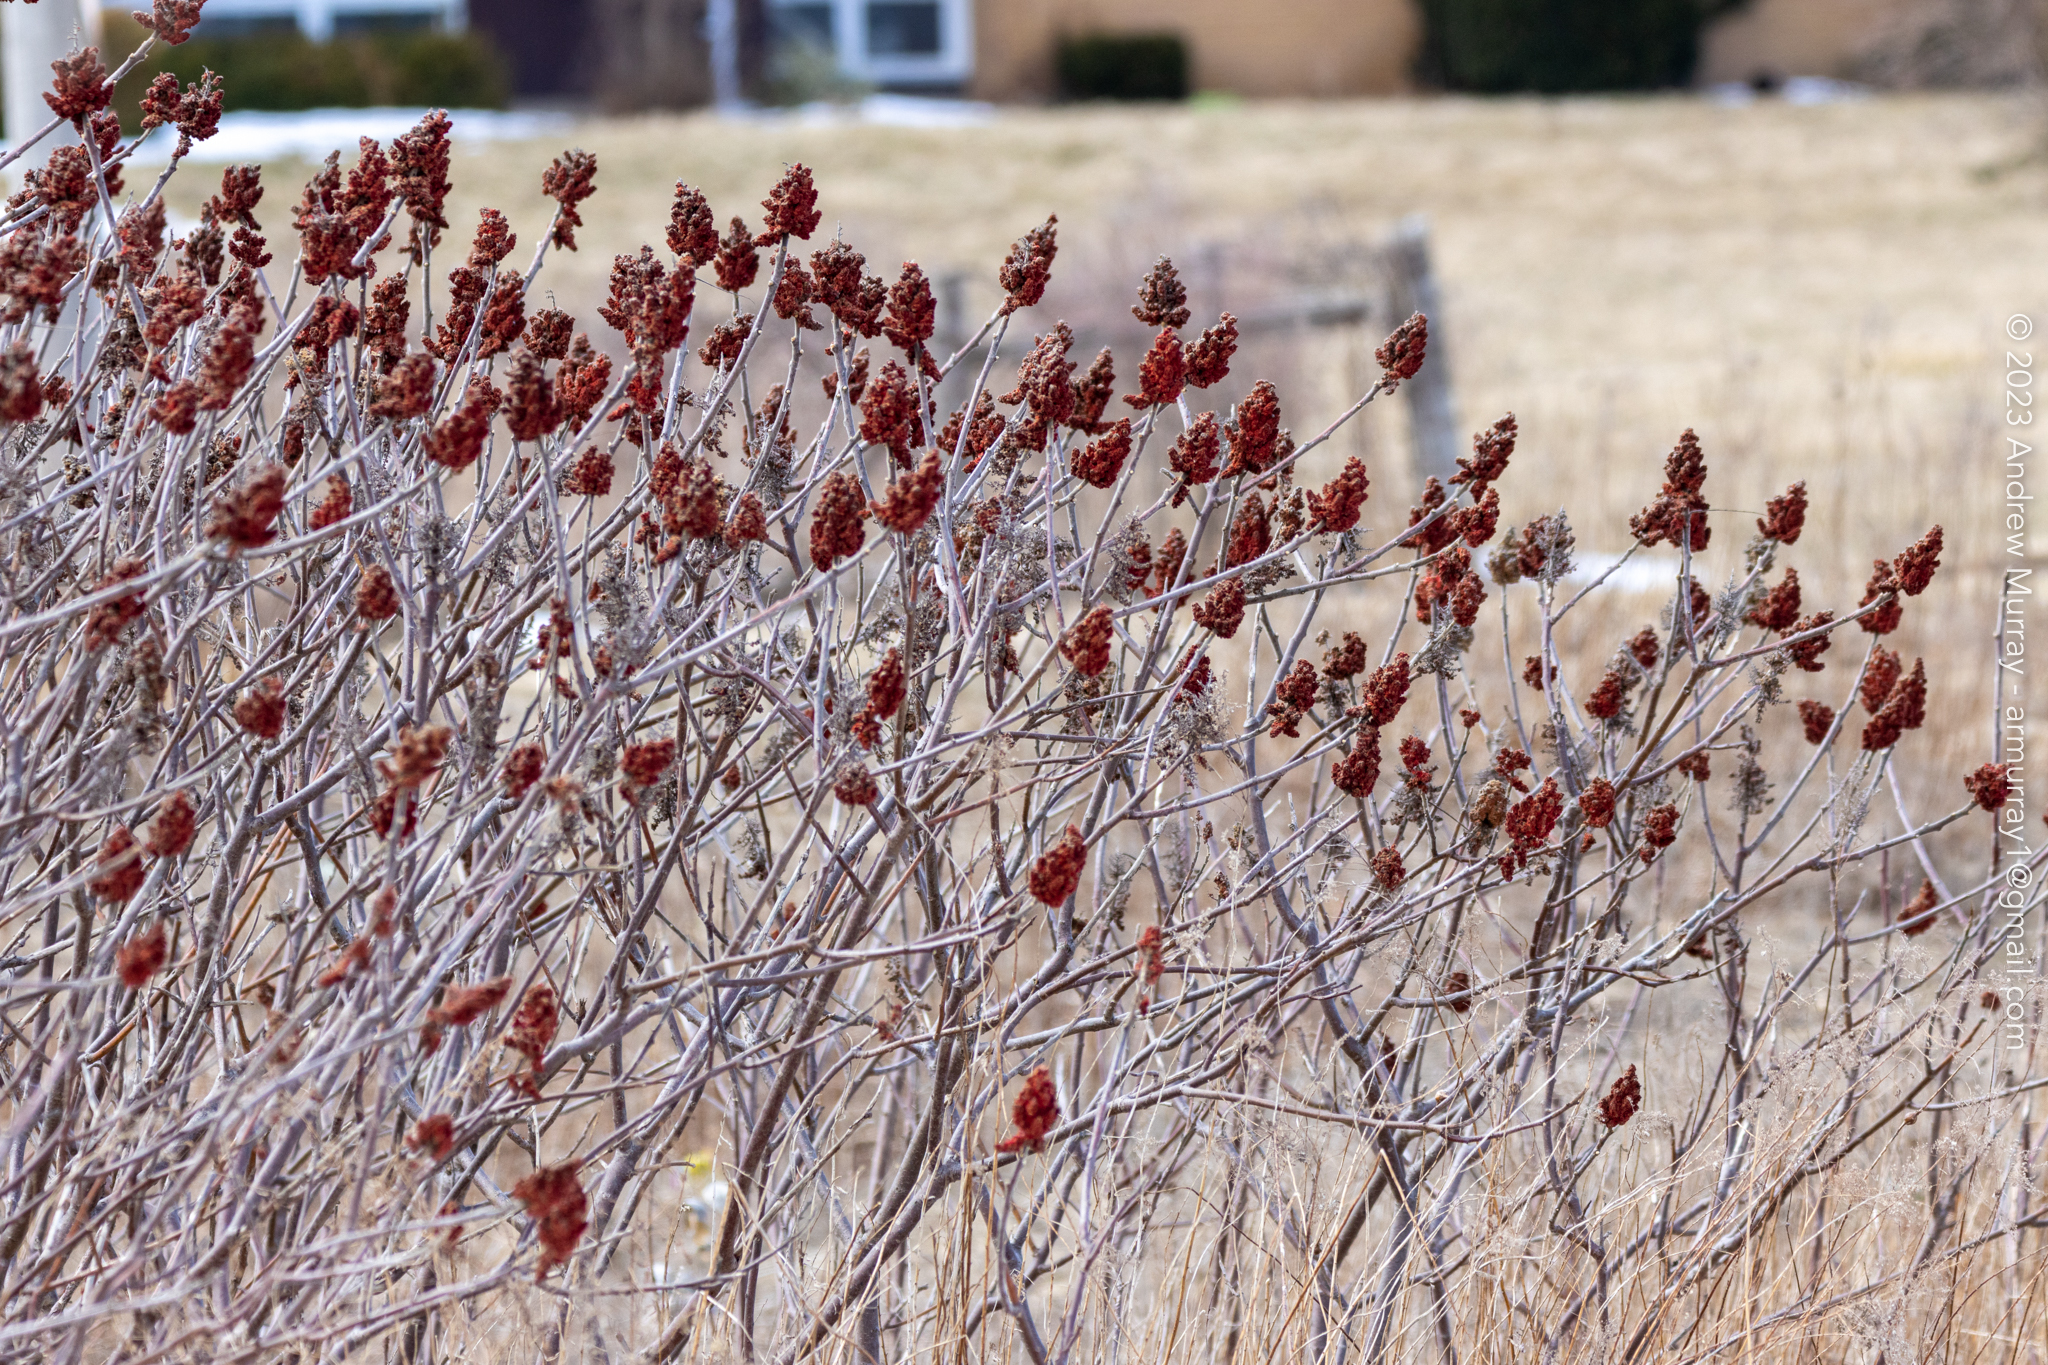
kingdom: Plantae
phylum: Tracheophyta
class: Magnoliopsida
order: Sapindales
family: Anacardiaceae
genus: Rhus
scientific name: Rhus typhina
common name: Staghorn sumac
